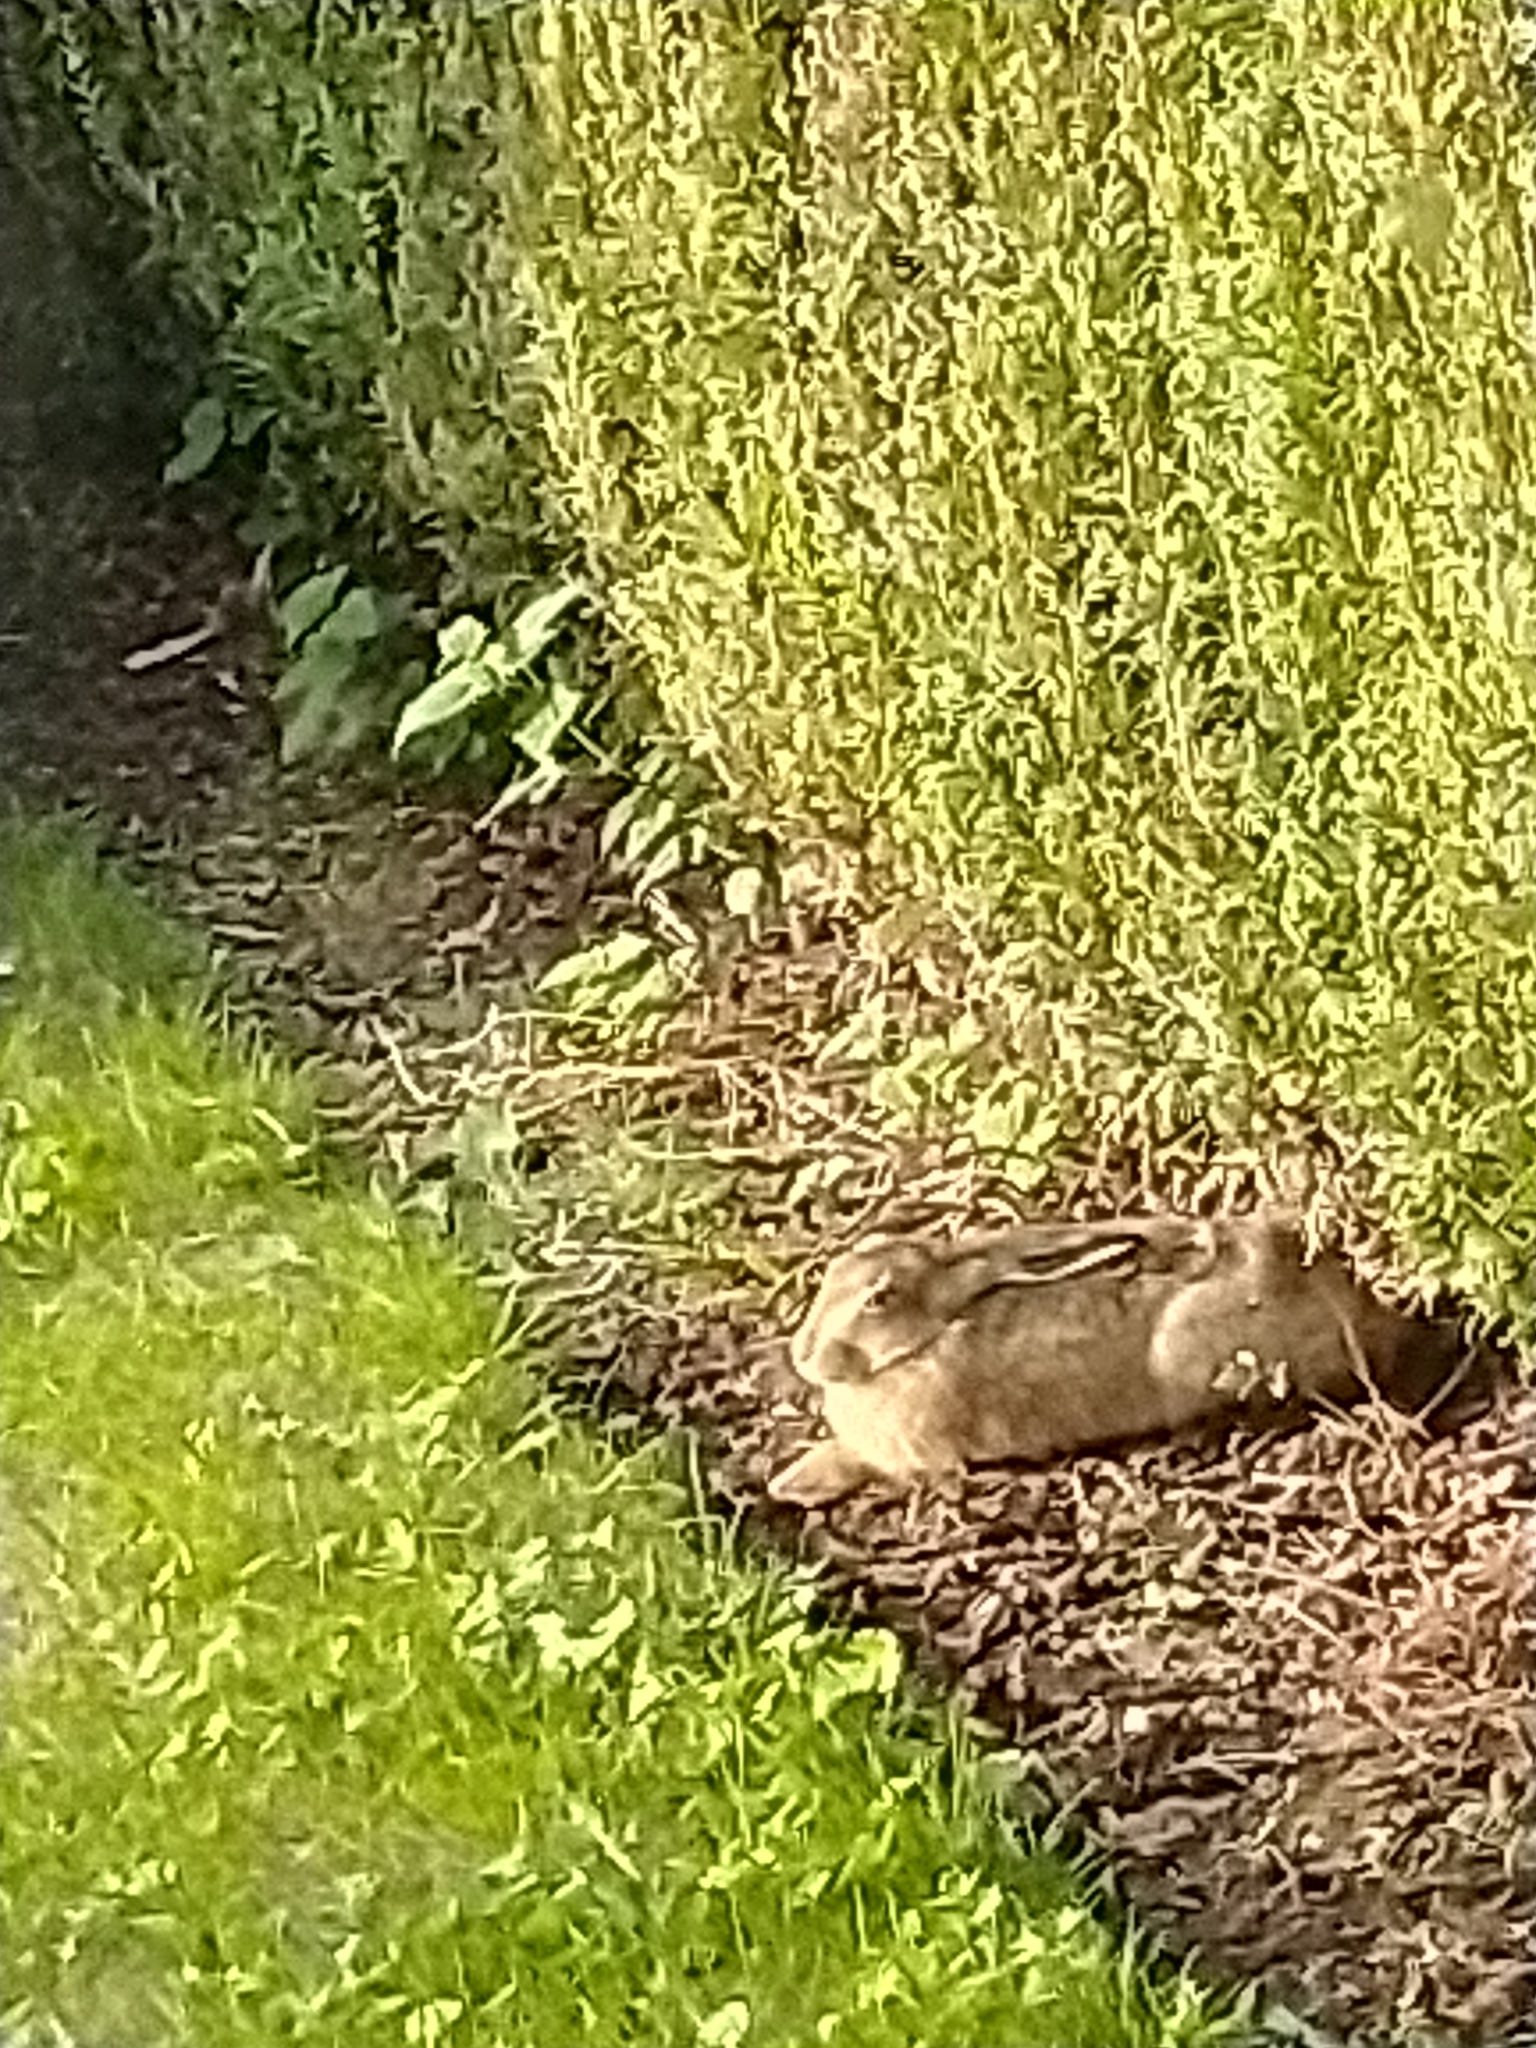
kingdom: Animalia
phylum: Chordata
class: Mammalia
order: Lagomorpha
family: Leporidae
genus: Lepus
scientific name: Lepus europaeus
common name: European hare
